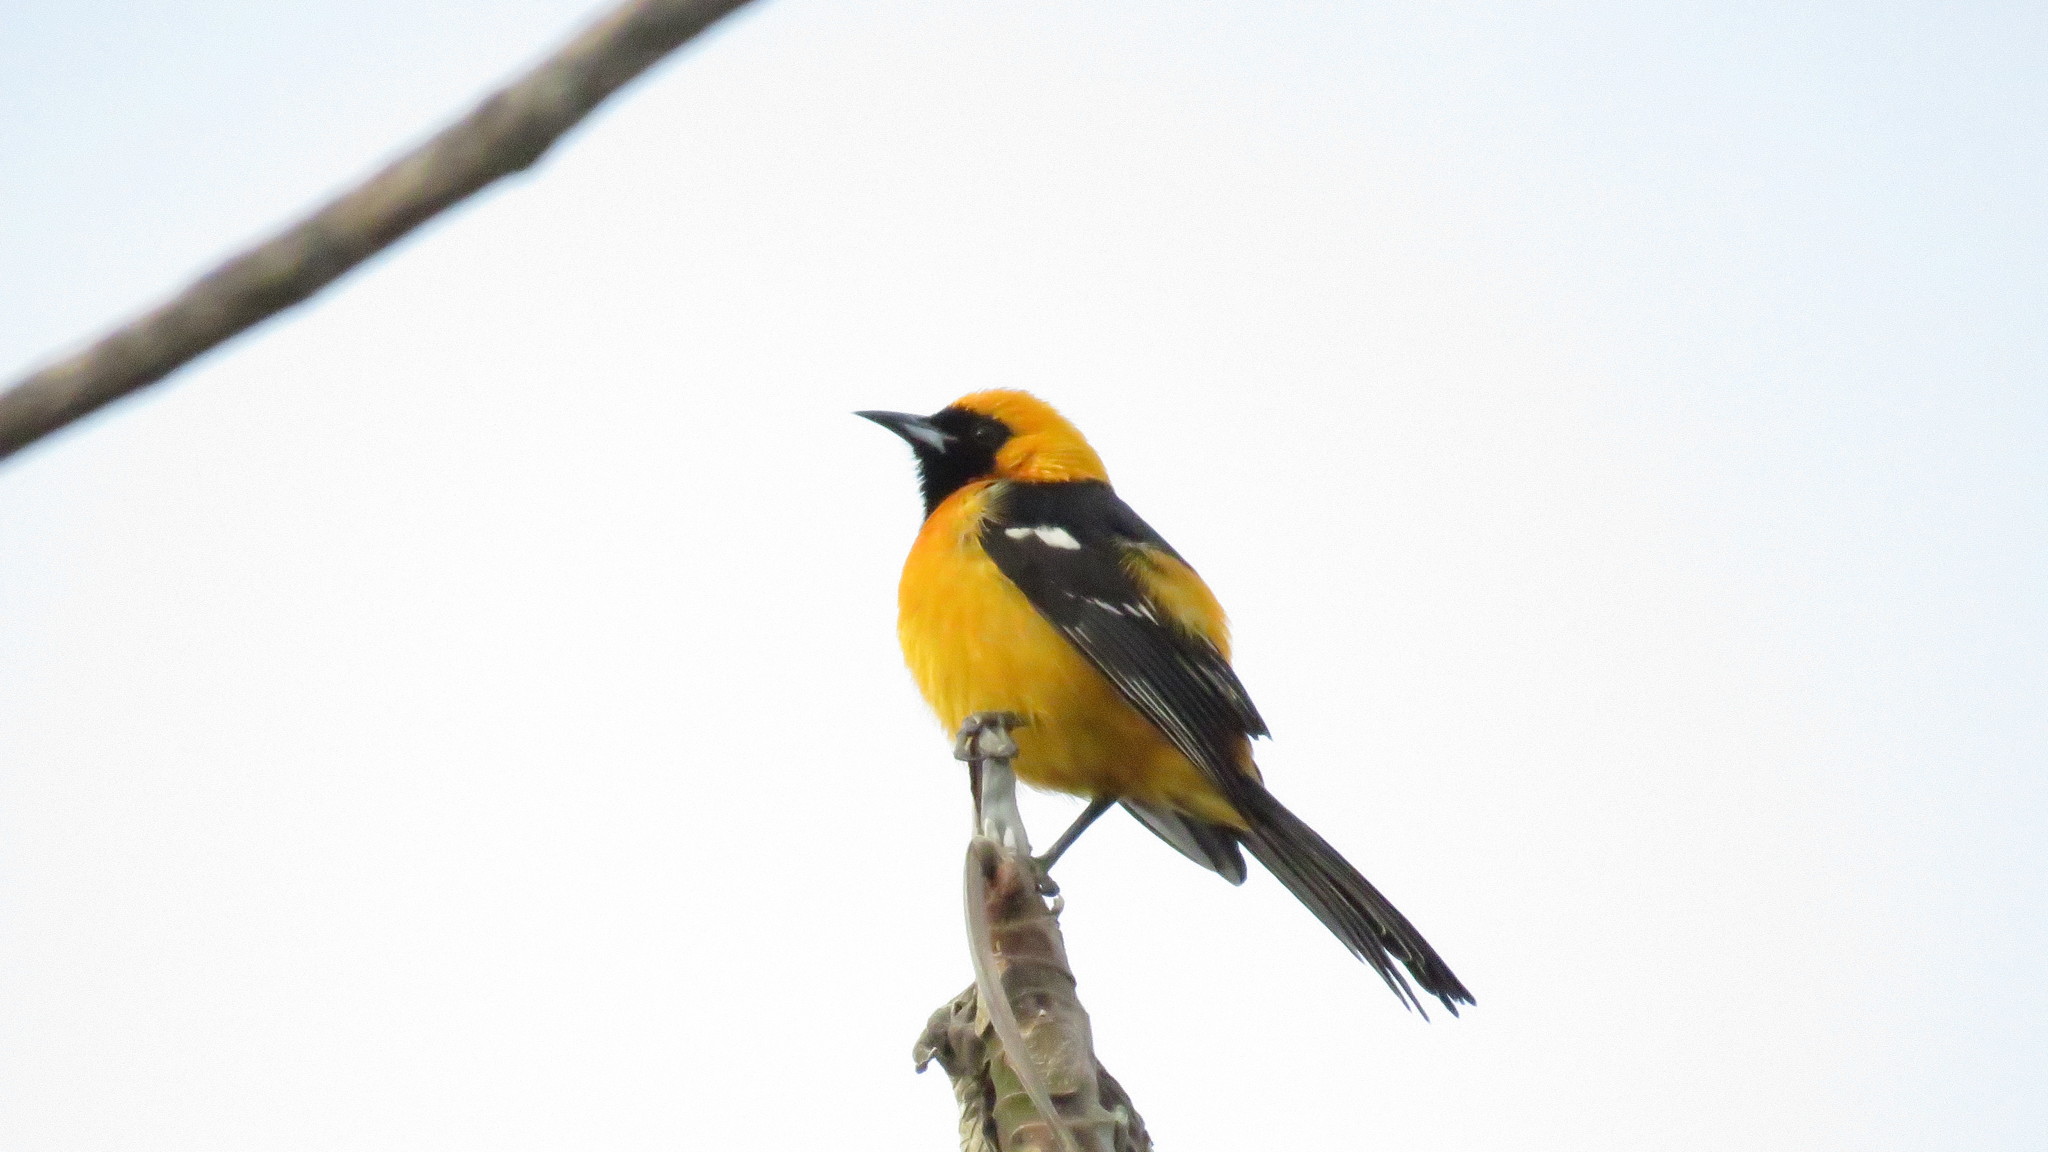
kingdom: Animalia
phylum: Chordata
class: Aves
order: Passeriformes
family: Icteridae
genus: Icterus
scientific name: Icterus cucullatus
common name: Hooded oriole
